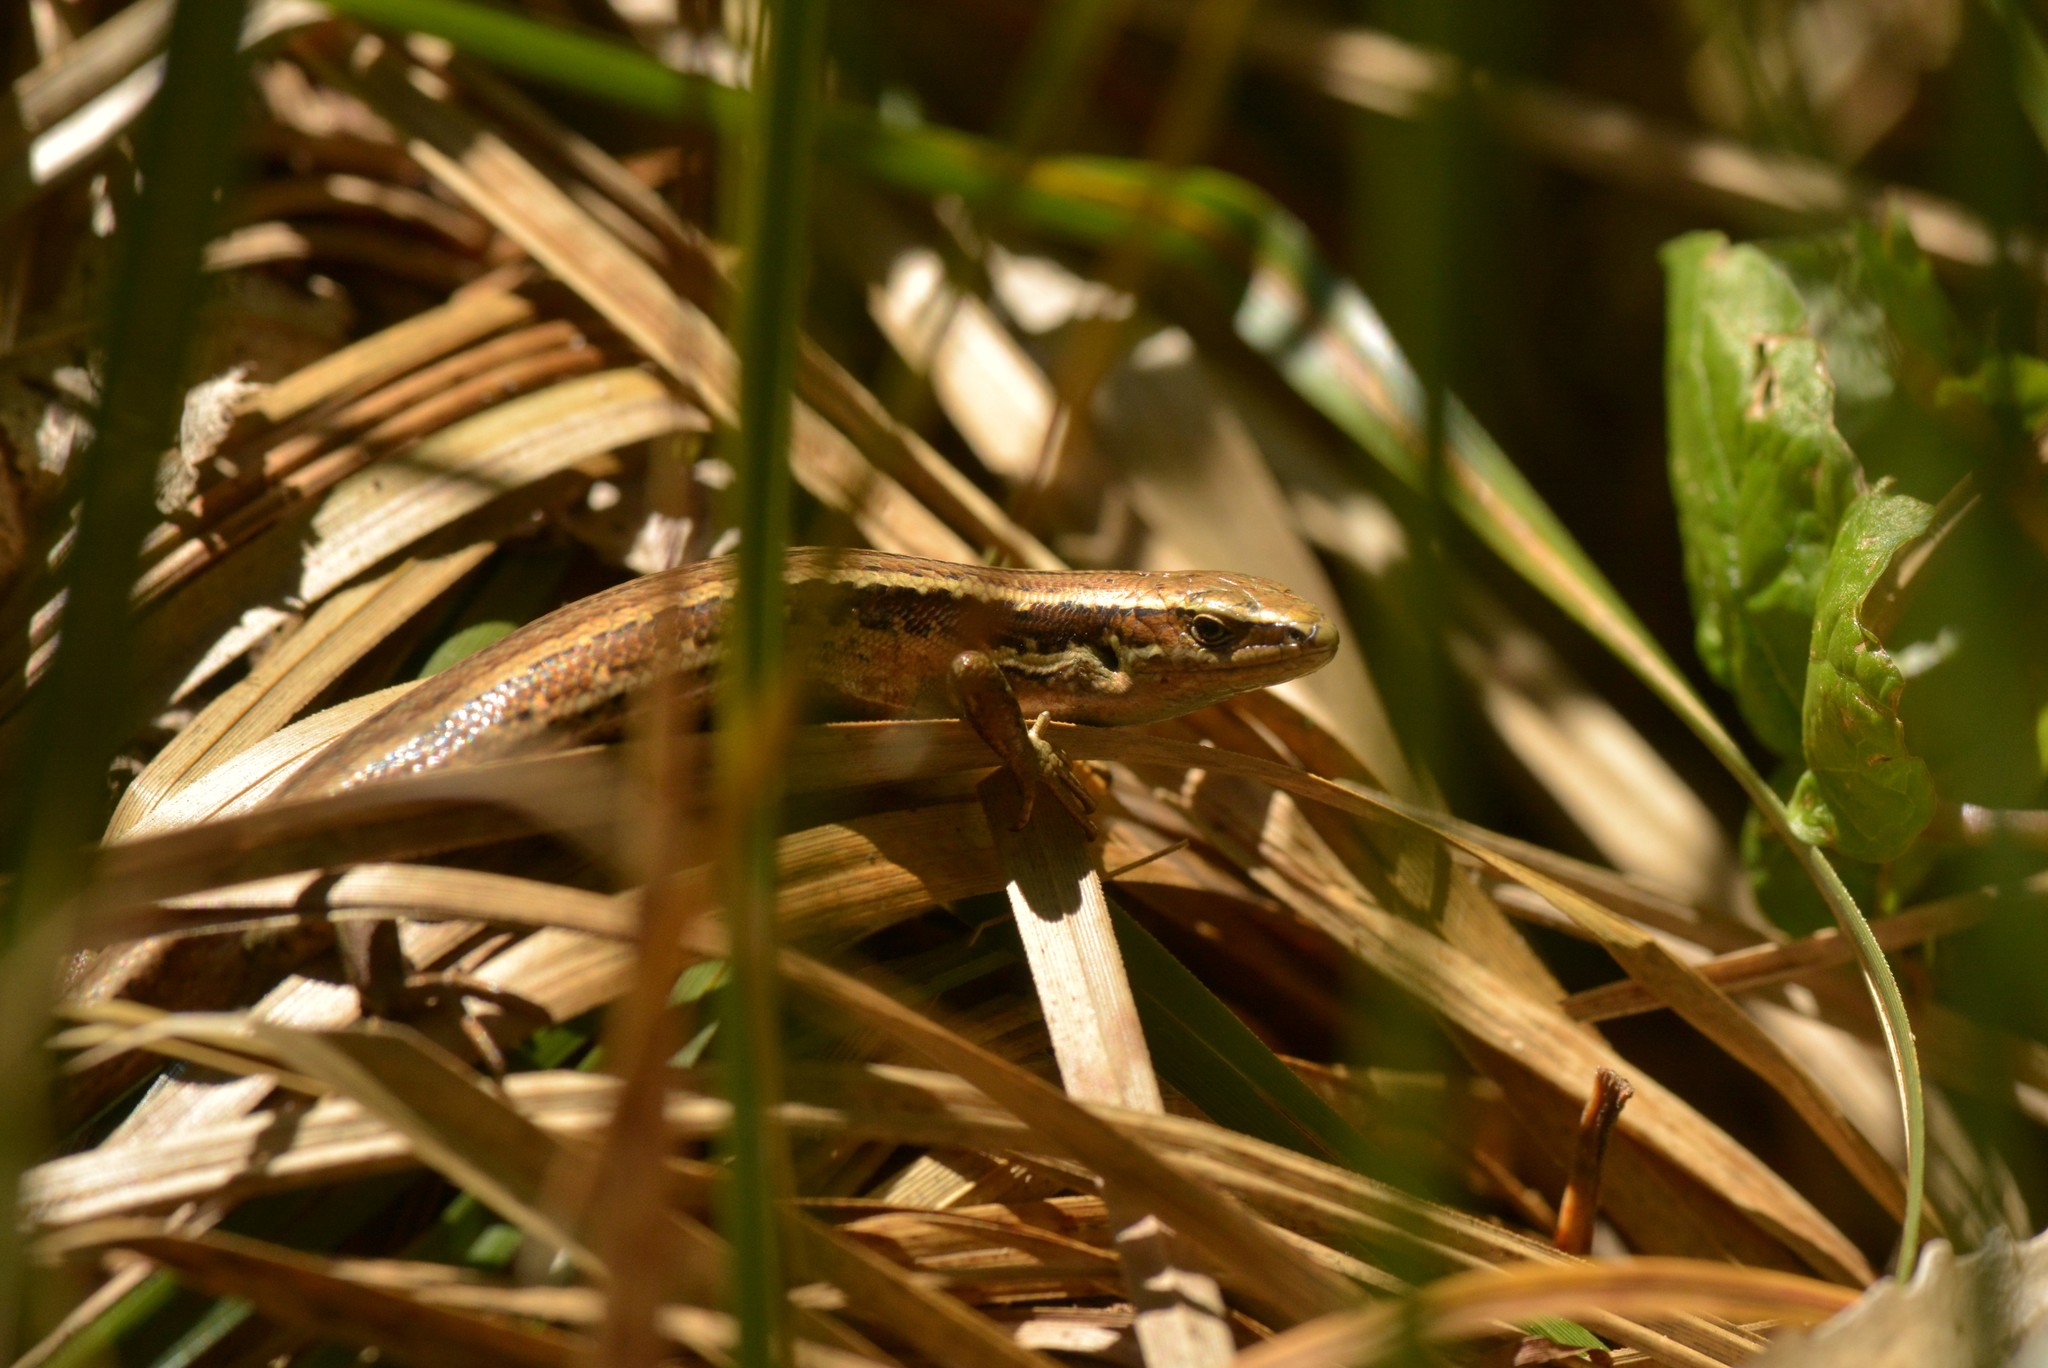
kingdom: Animalia
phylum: Chordata
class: Squamata
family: Scincidae
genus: Oligosoma
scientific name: Oligosoma polychroma
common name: Common new zealand skink
